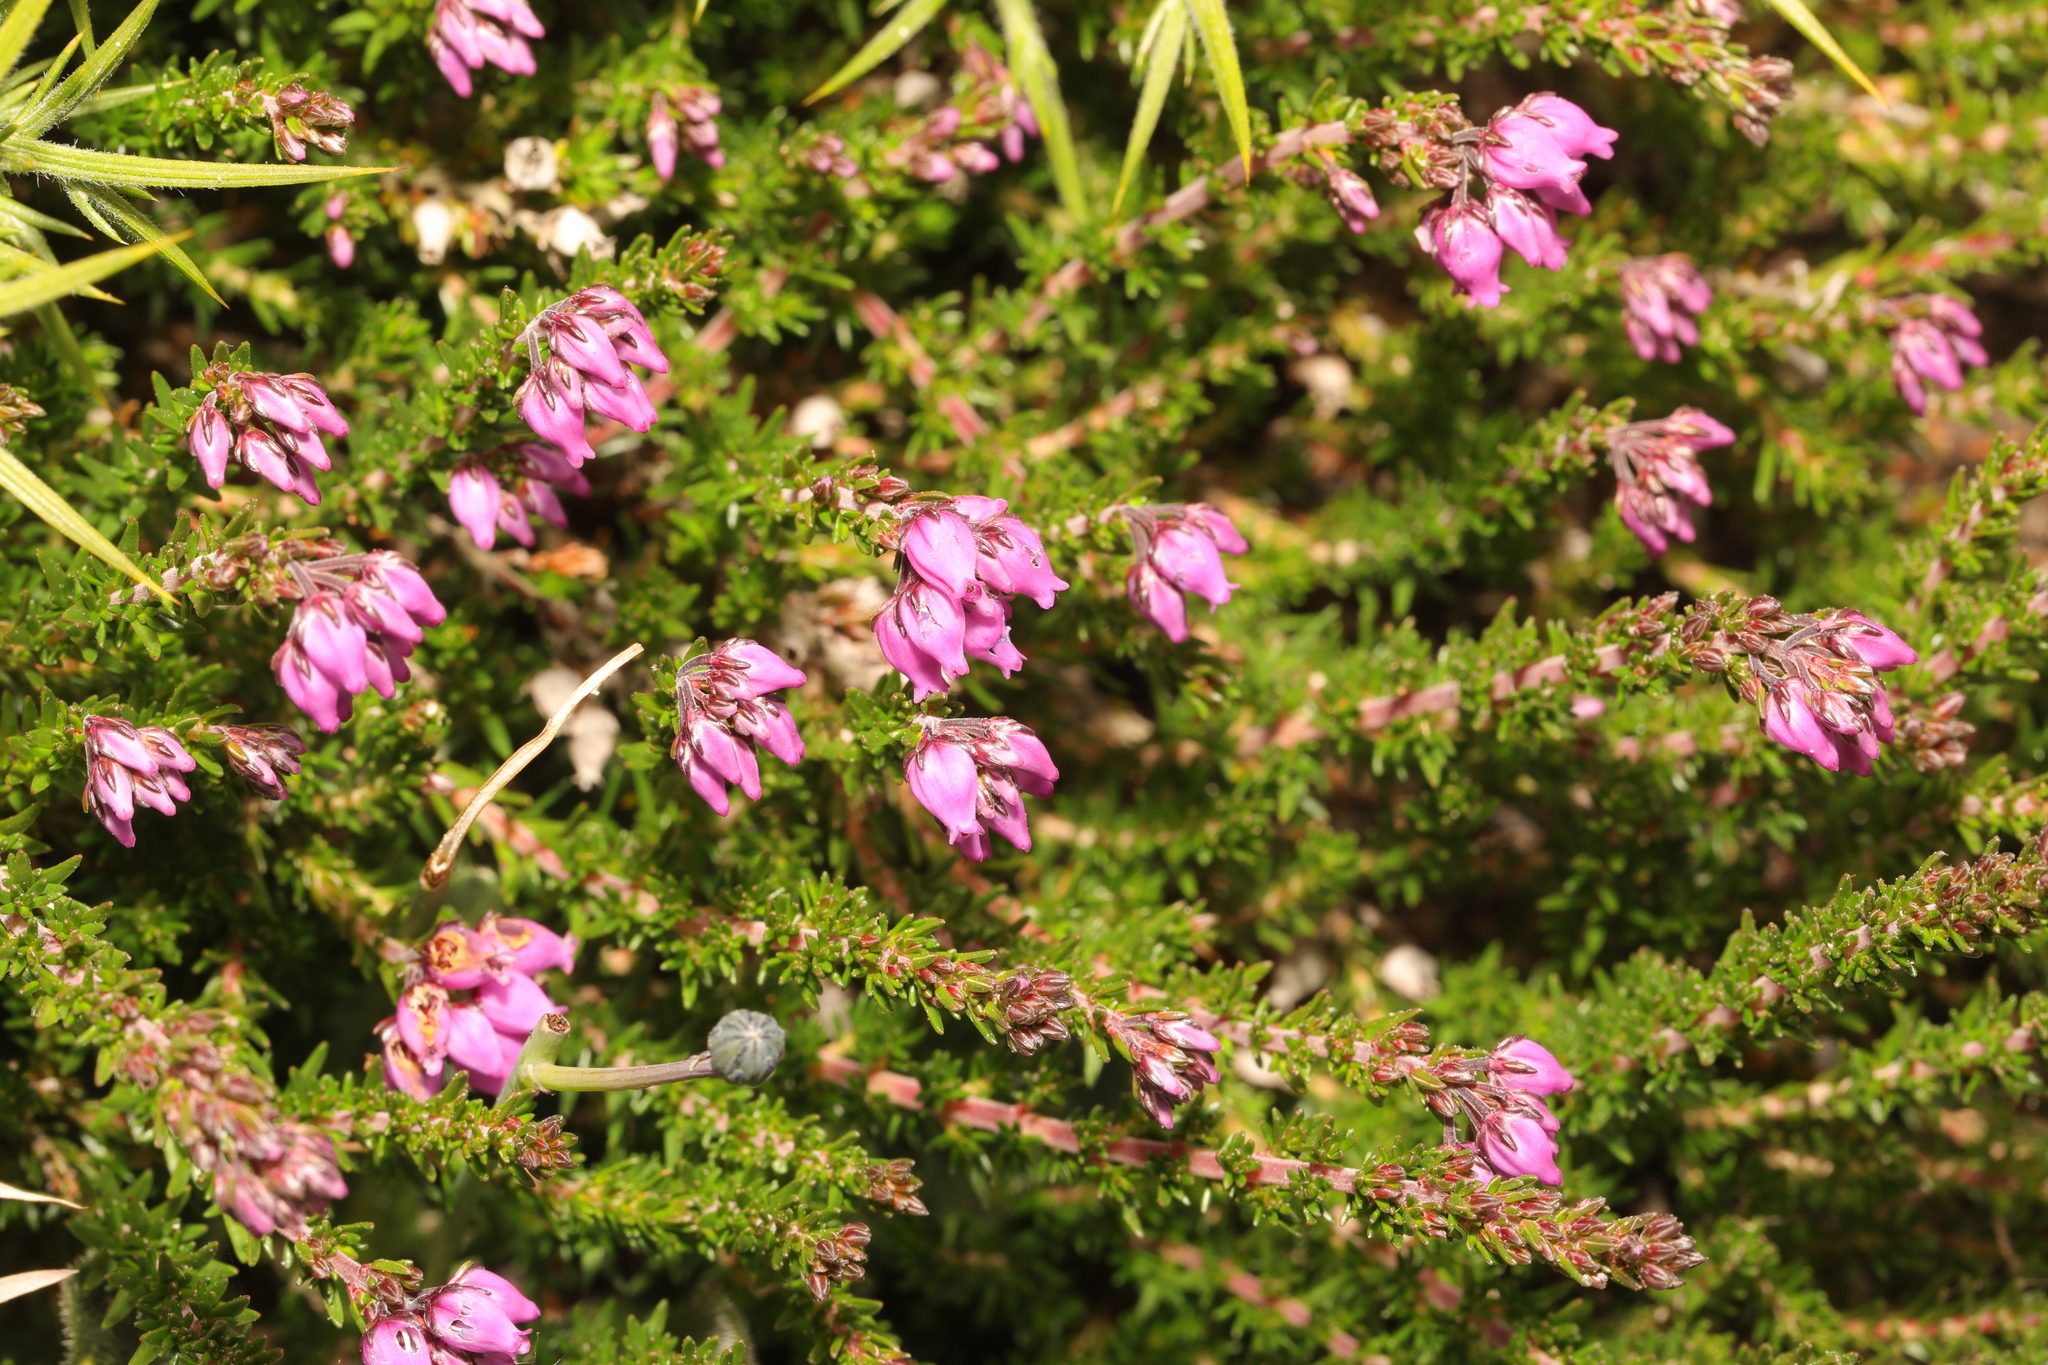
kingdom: Plantae
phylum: Tracheophyta
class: Magnoliopsida
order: Ericales
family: Ericaceae
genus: Erica
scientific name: Erica cinerea
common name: Bell heather
